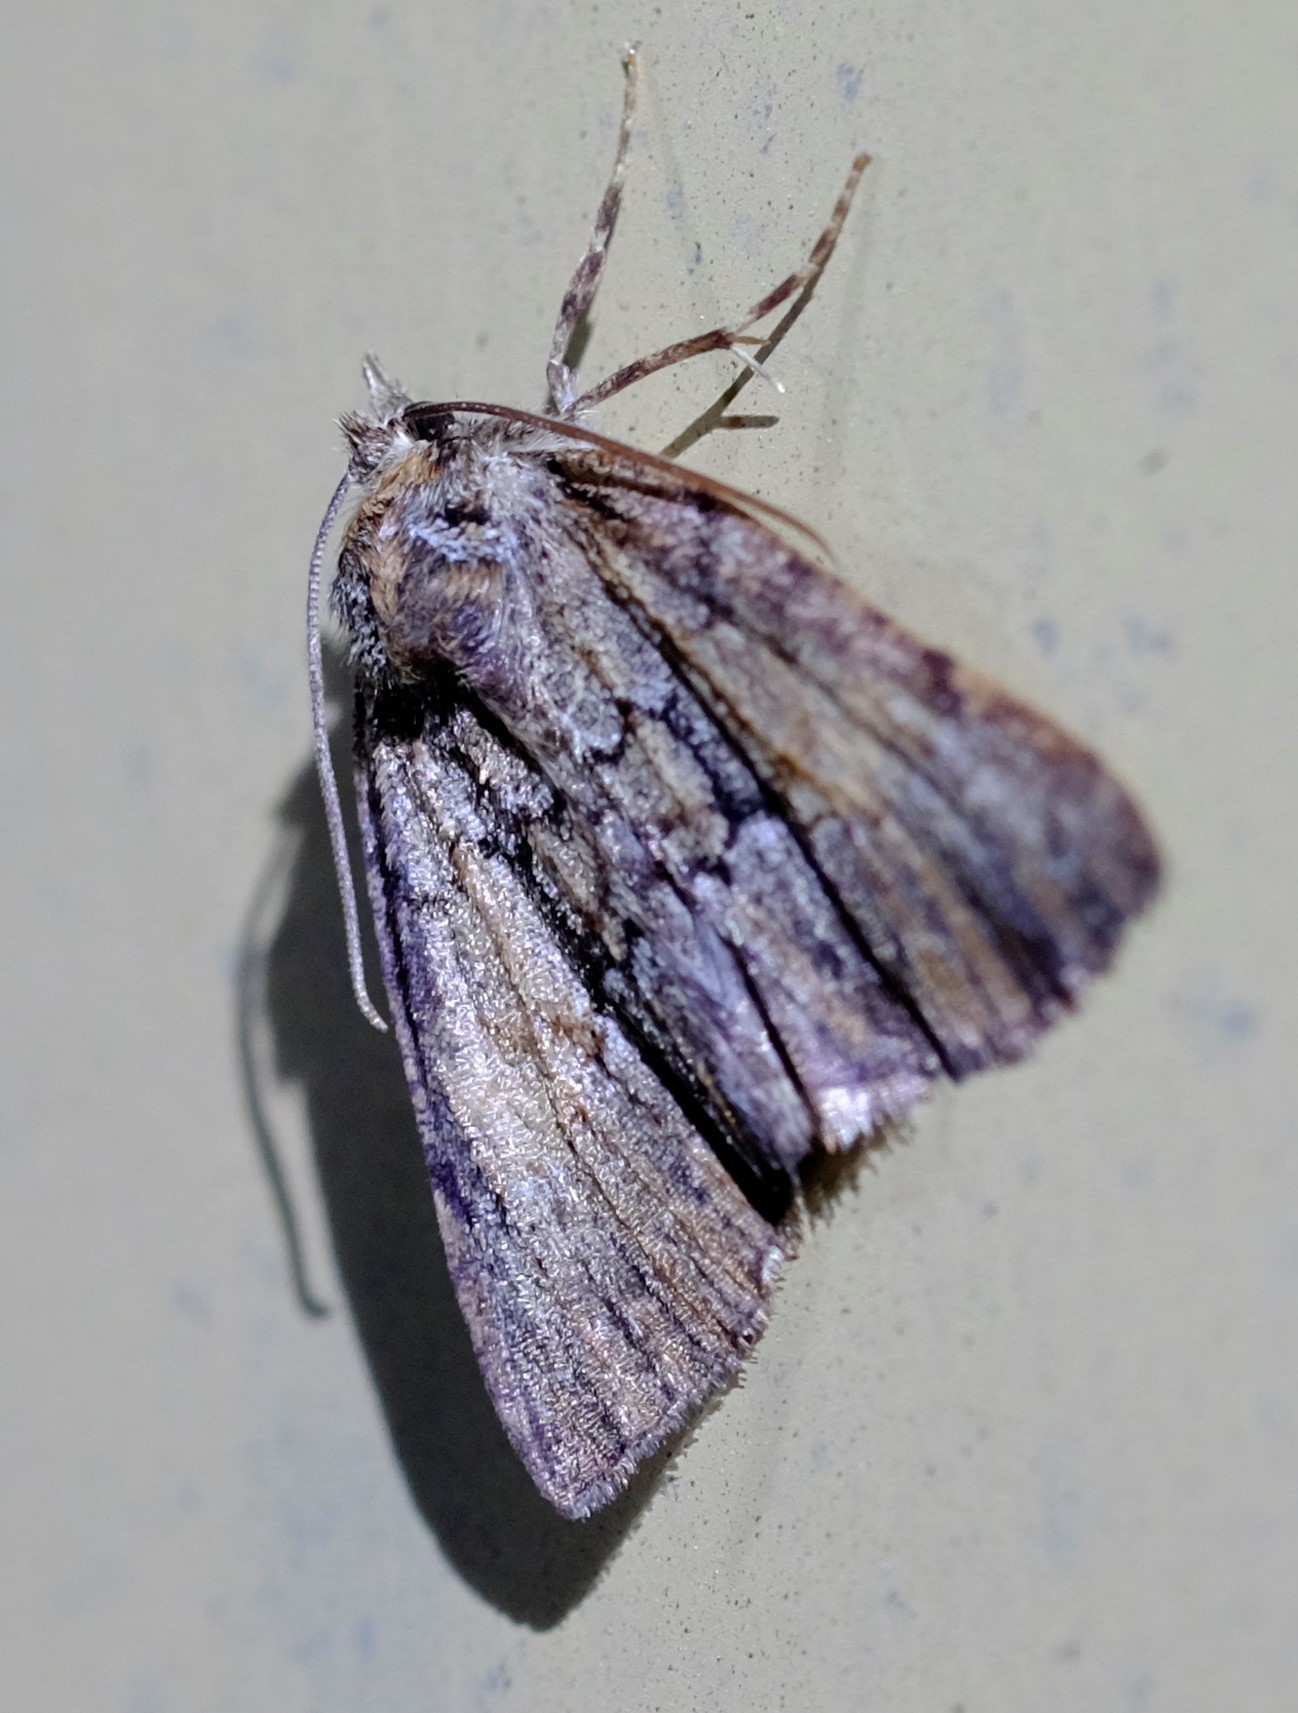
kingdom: Animalia
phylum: Arthropoda
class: Insecta
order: Lepidoptera
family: Geometridae
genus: Smyriodes
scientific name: Smyriodes
